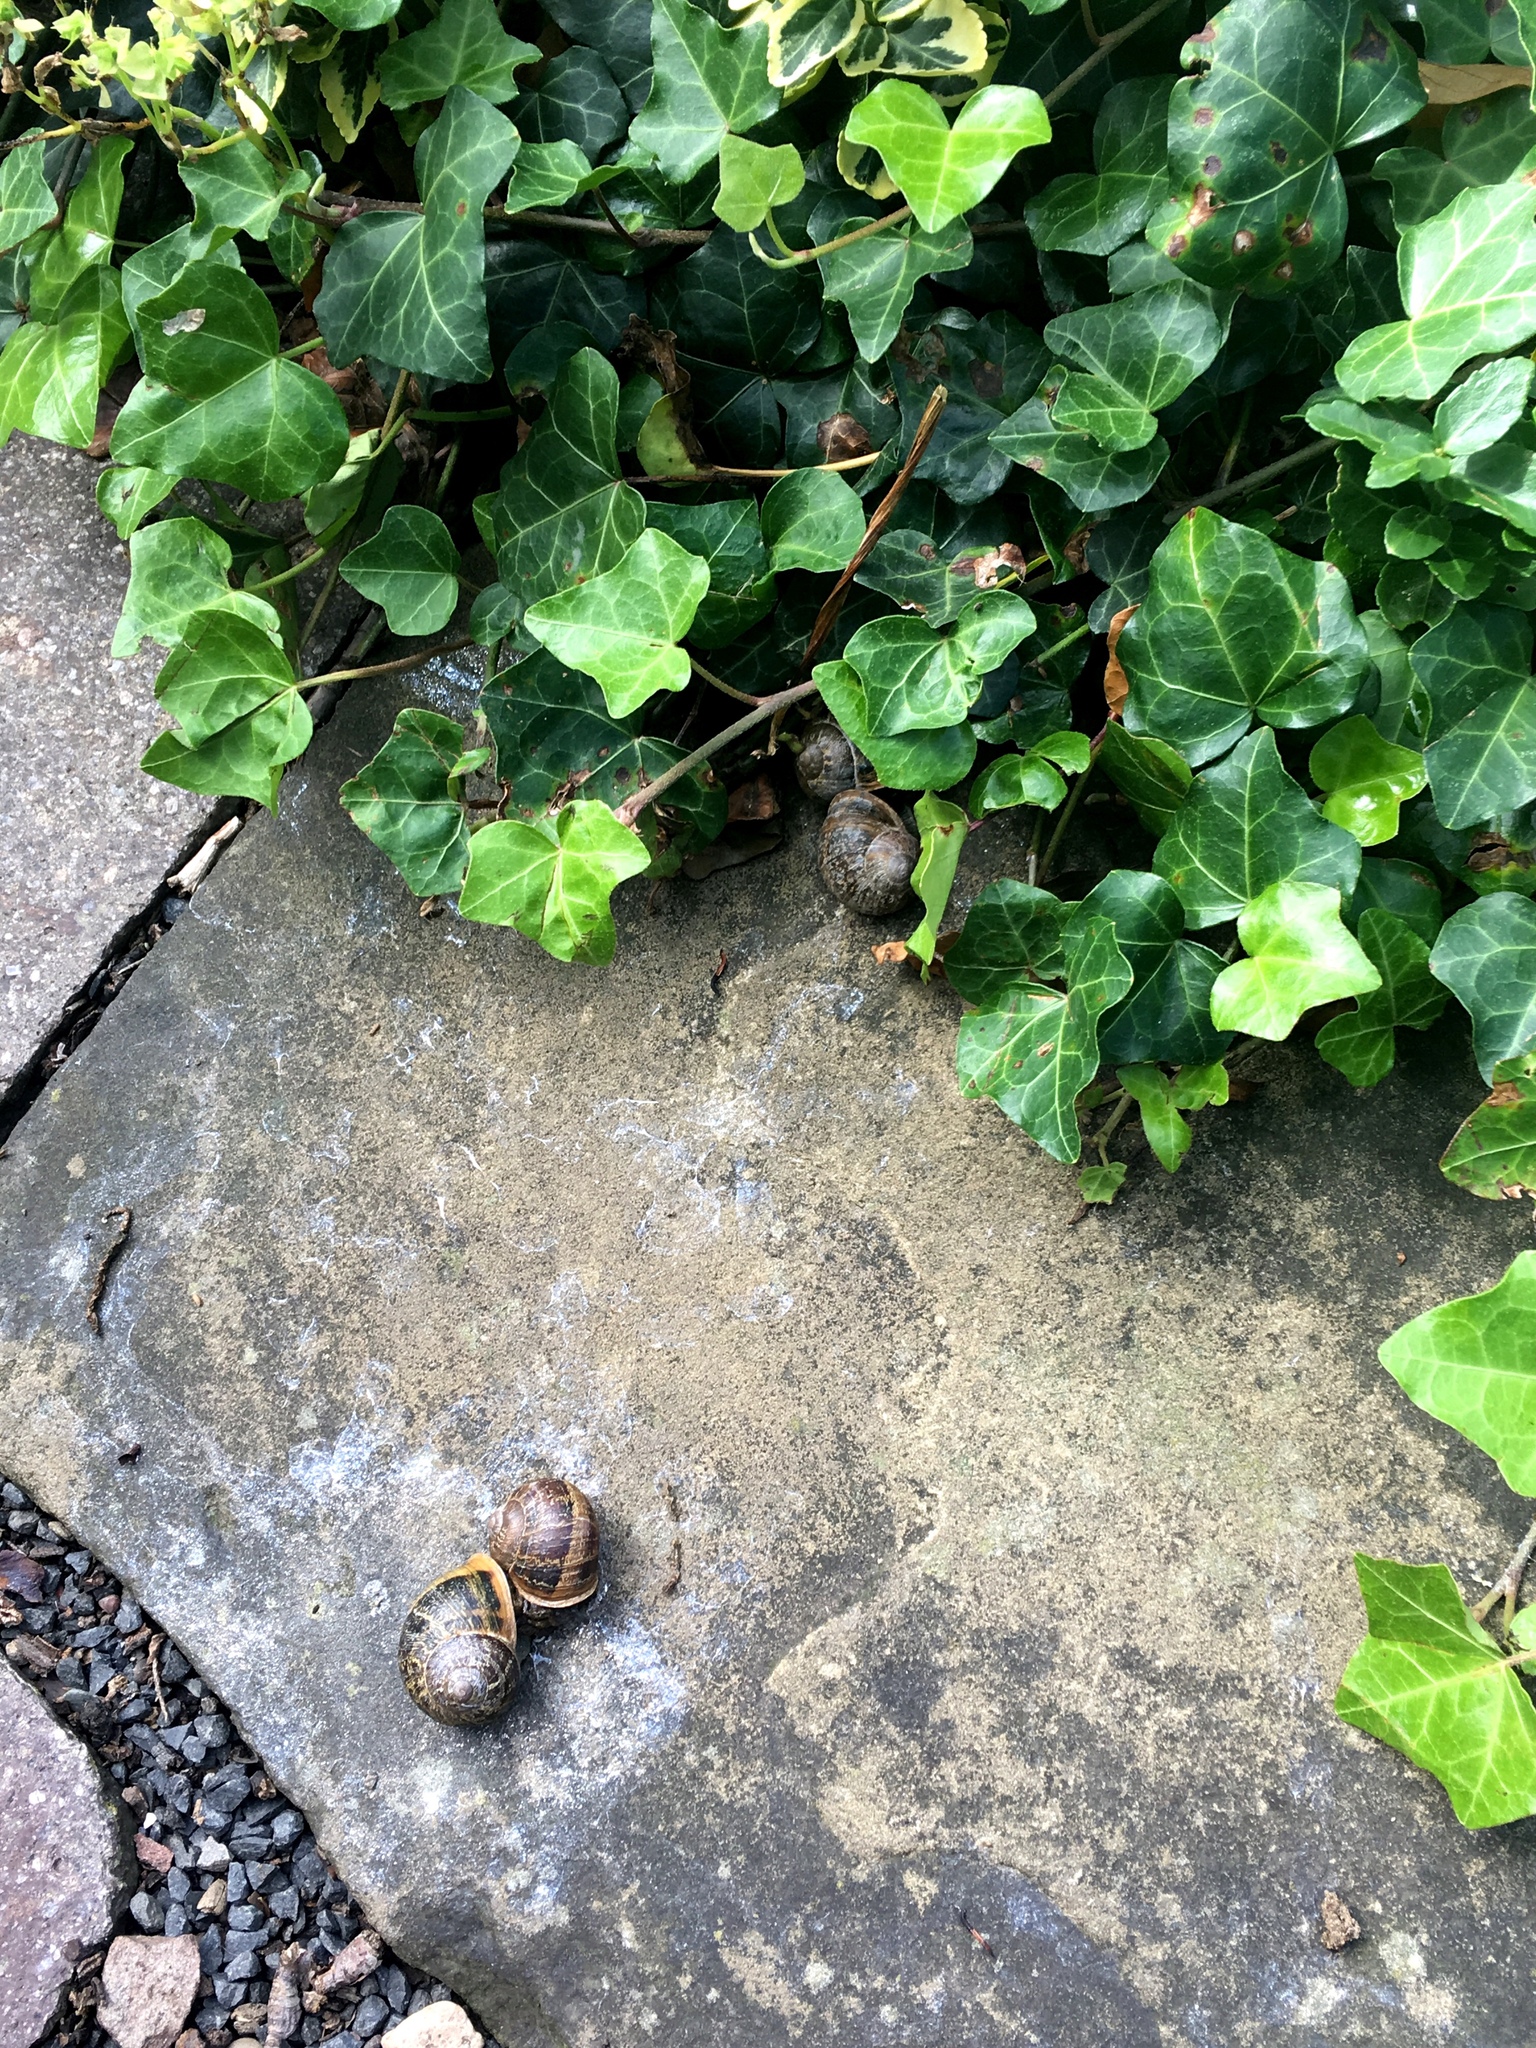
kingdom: Animalia
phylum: Mollusca
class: Gastropoda
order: Stylommatophora
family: Helicidae
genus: Cornu
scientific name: Cornu aspersum
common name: Brown garden snail
